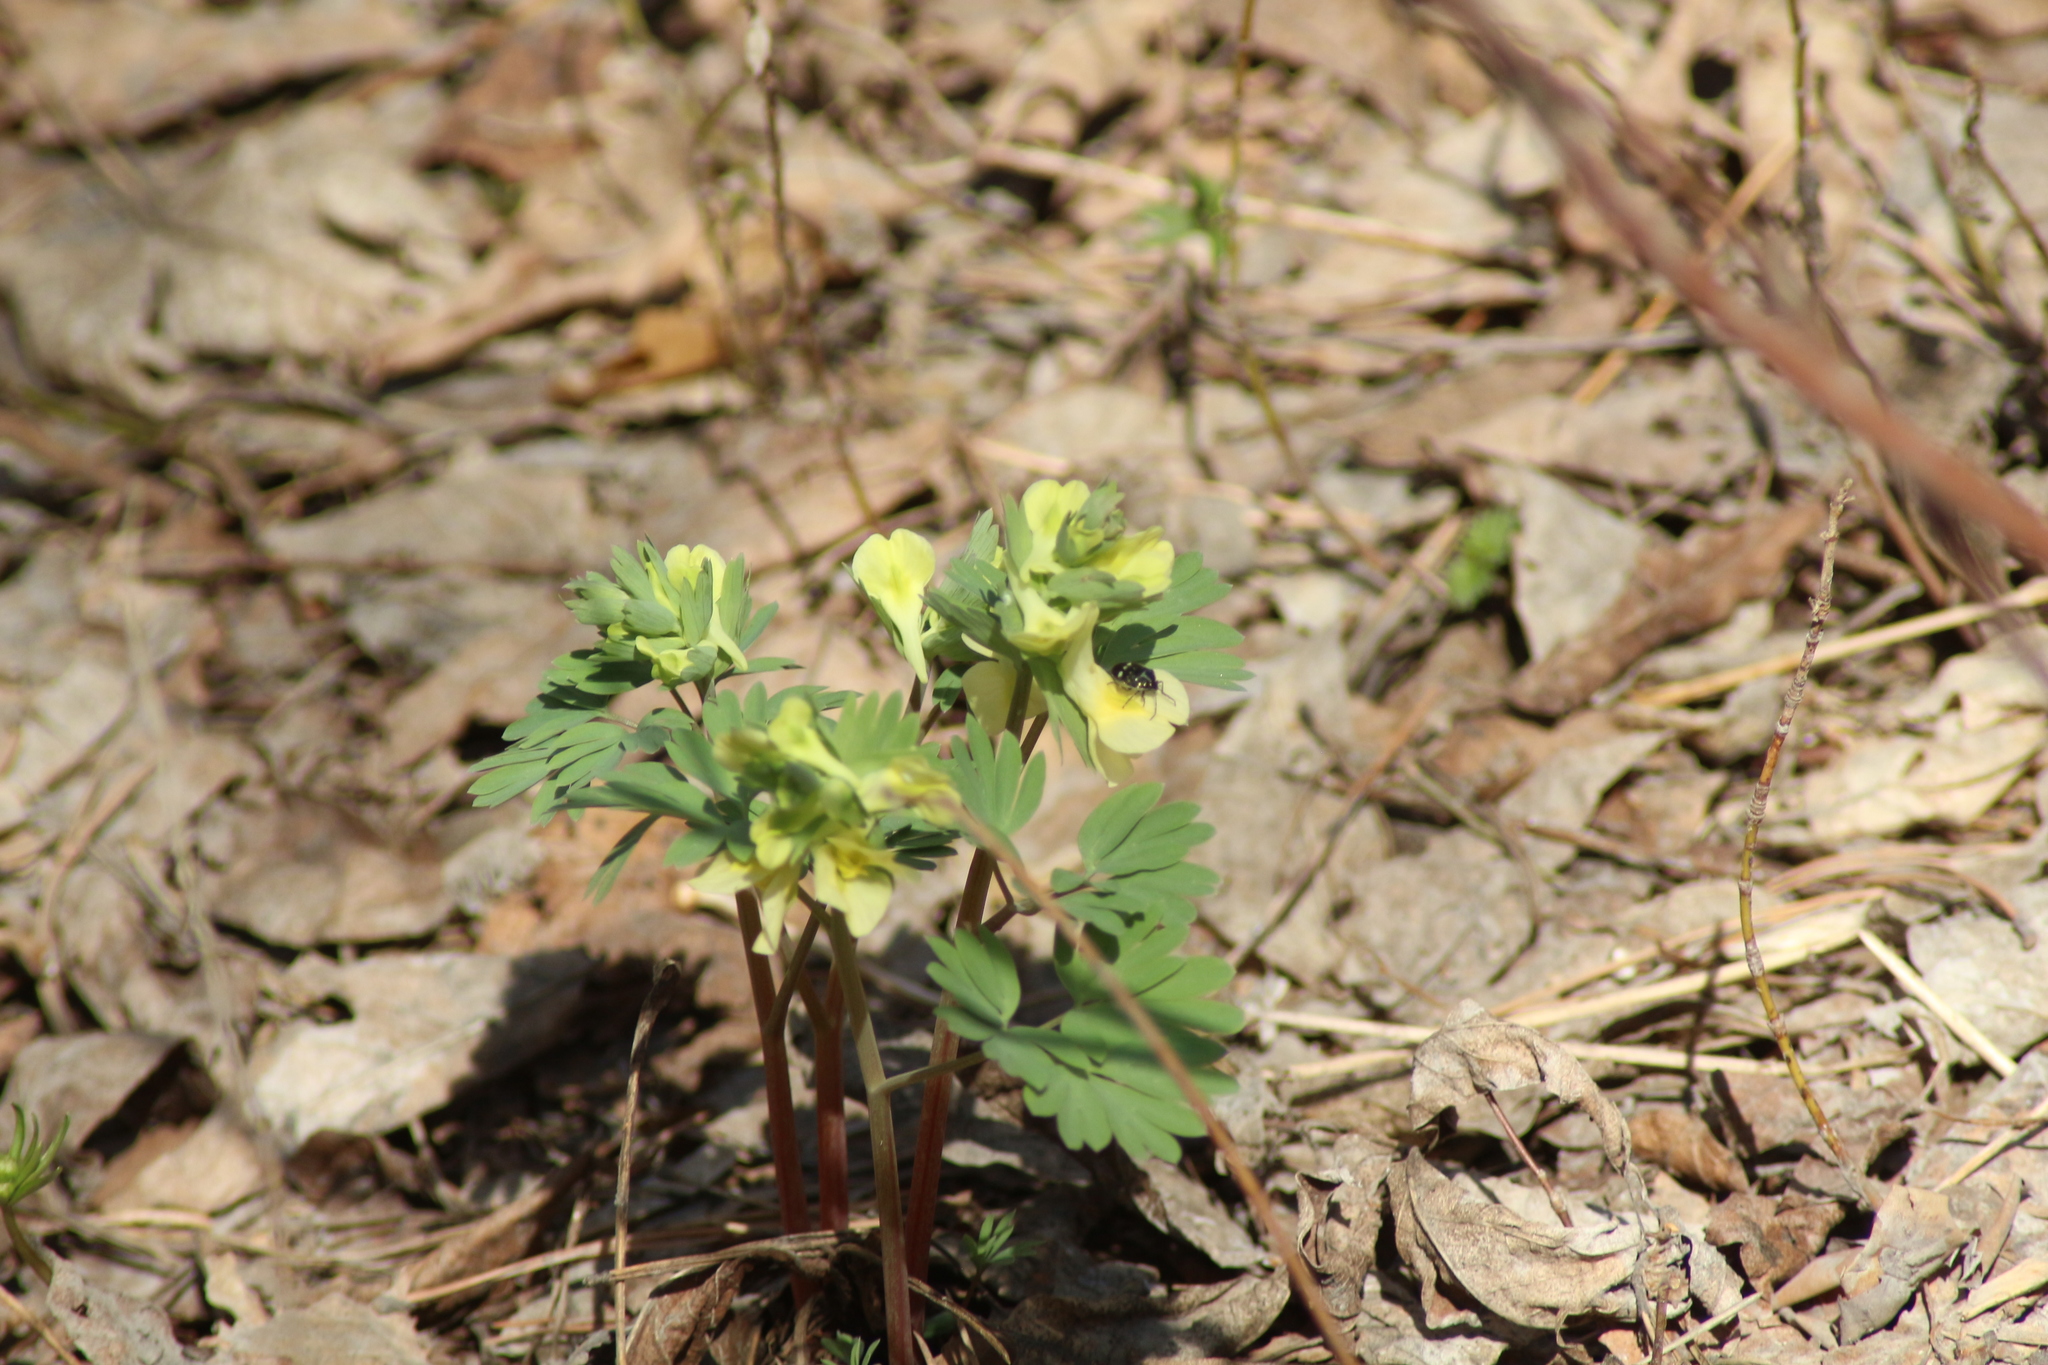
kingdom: Plantae
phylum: Tracheophyta
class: Magnoliopsida
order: Ranunculales
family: Papaveraceae
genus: Corydalis
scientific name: Corydalis bracteata
